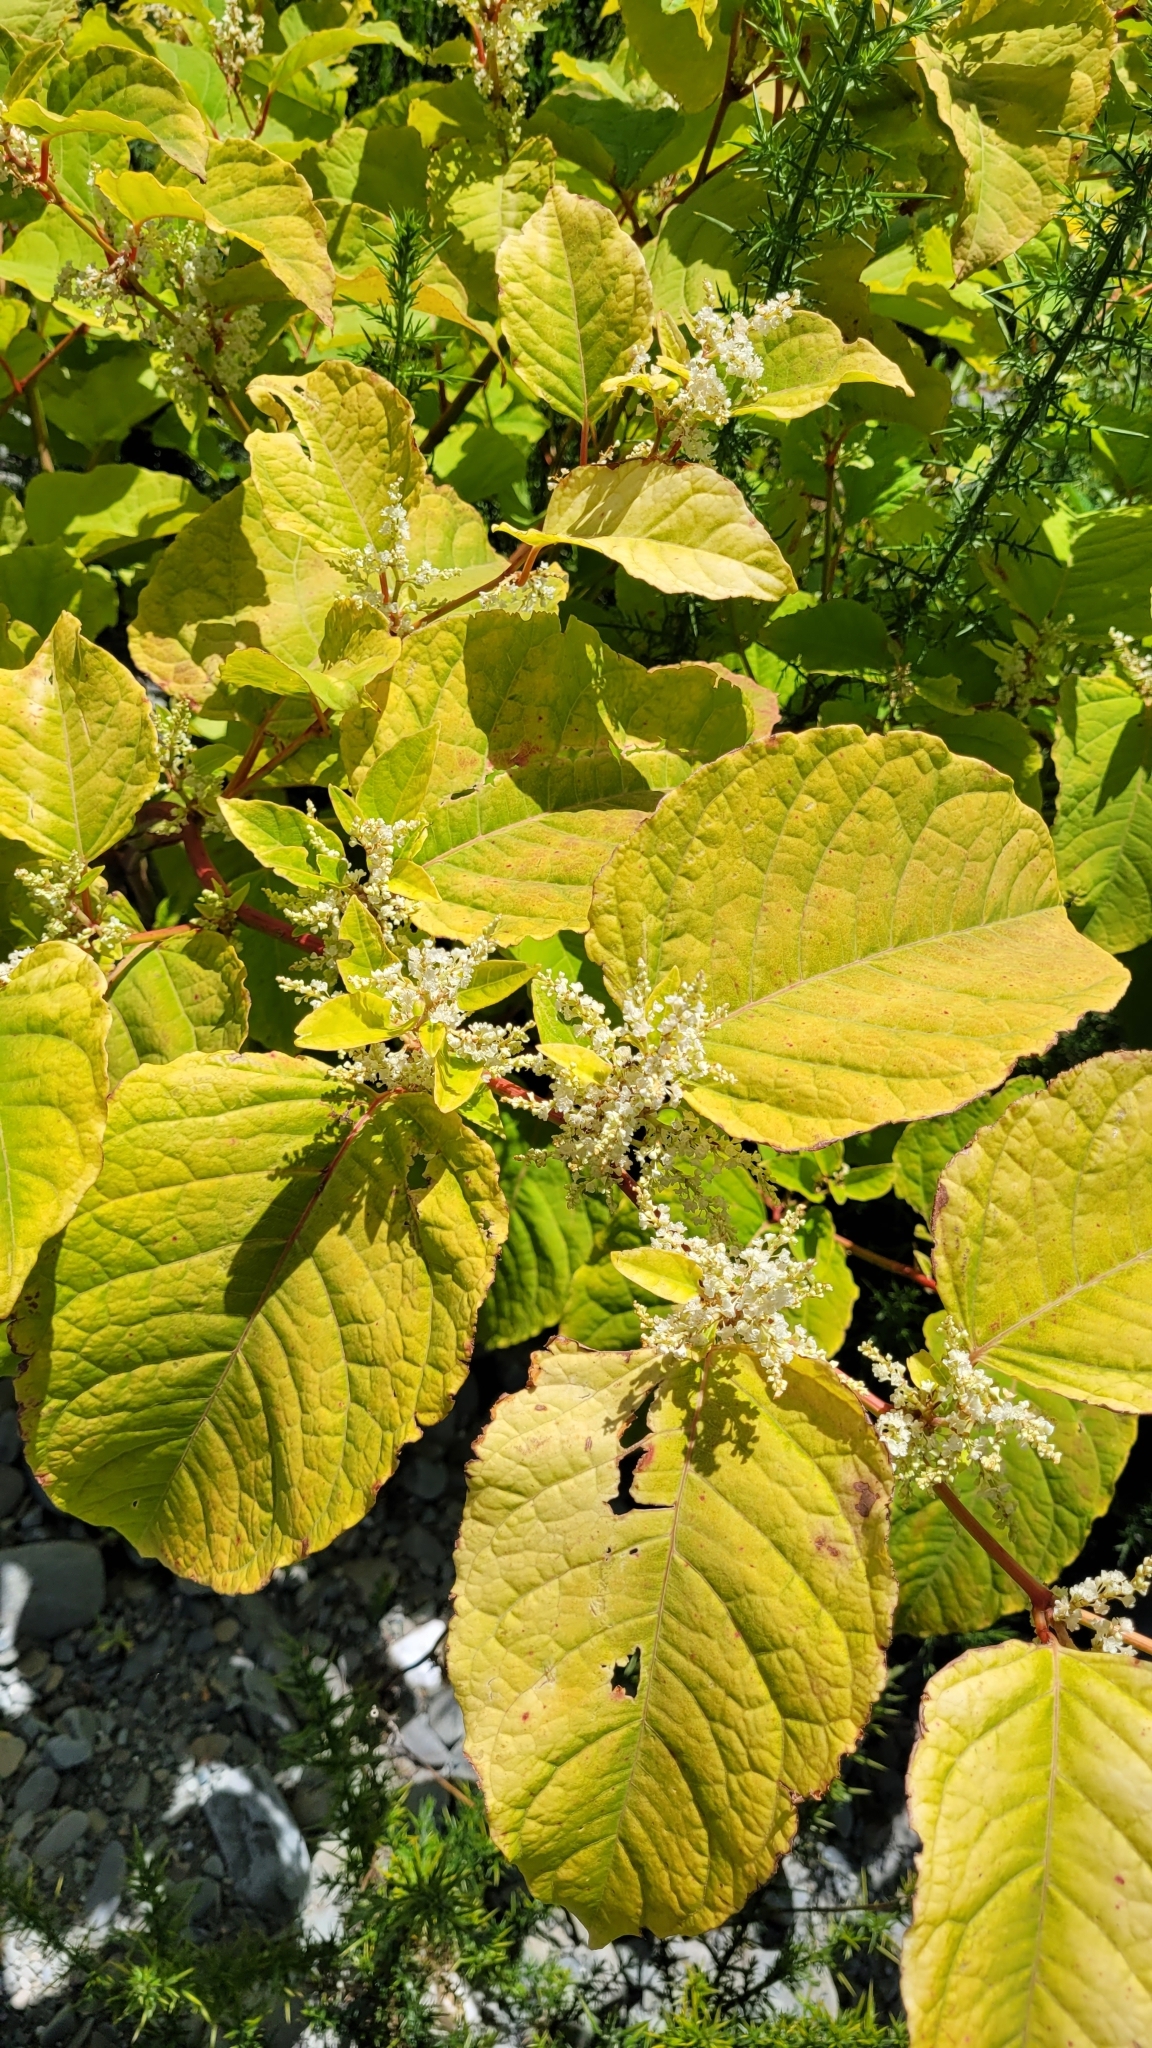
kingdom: Plantae
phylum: Tracheophyta
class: Magnoliopsida
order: Caryophyllales
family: Polygonaceae
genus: Reynoutria
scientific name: Reynoutria japonica
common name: Japanese knotweed
